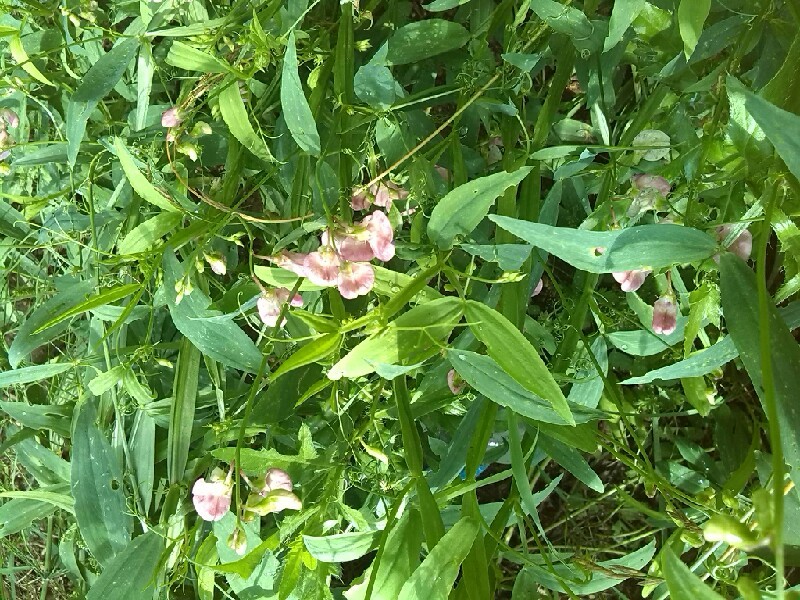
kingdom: Plantae
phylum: Tracheophyta
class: Magnoliopsida
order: Fabales
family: Fabaceae
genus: Lathyrus
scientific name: Lathyrus sylvestris
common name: Flat pea
